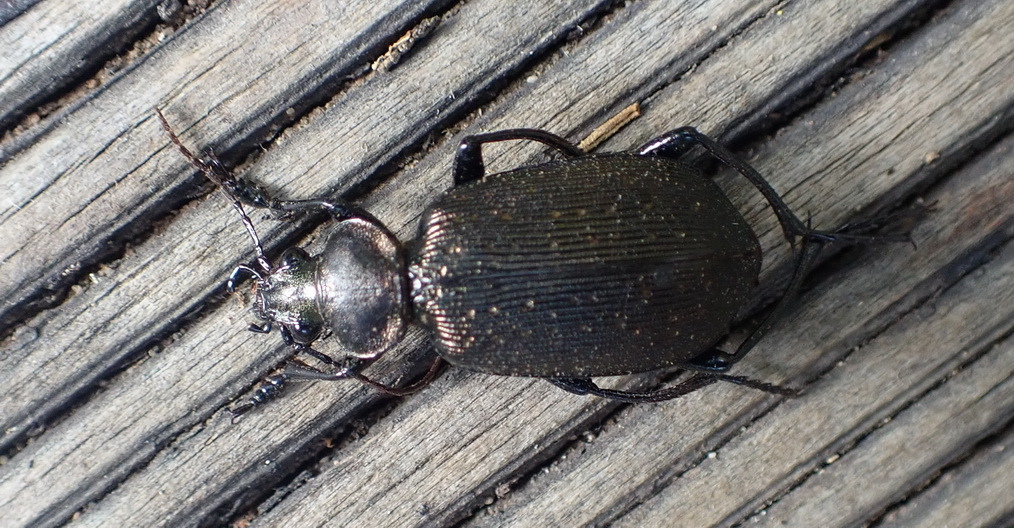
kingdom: Animalia
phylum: Arthropoda
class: Insecta
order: Coleoptera
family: Carabidae
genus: Calosoma
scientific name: Calosoma chlorostictum
